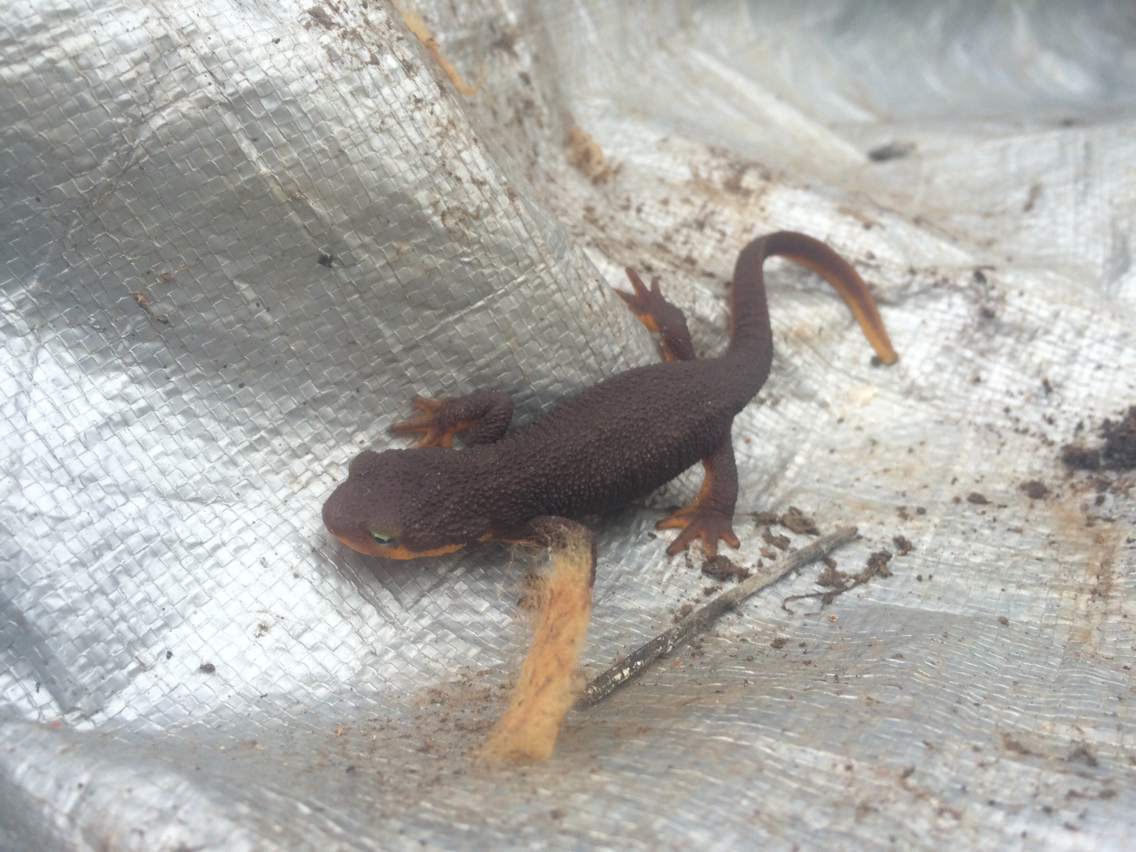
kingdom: Animalia
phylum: Chordata
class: Amphibia
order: Caudata
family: Salamandridae
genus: Taricha
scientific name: Taricha torosa
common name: California newt
